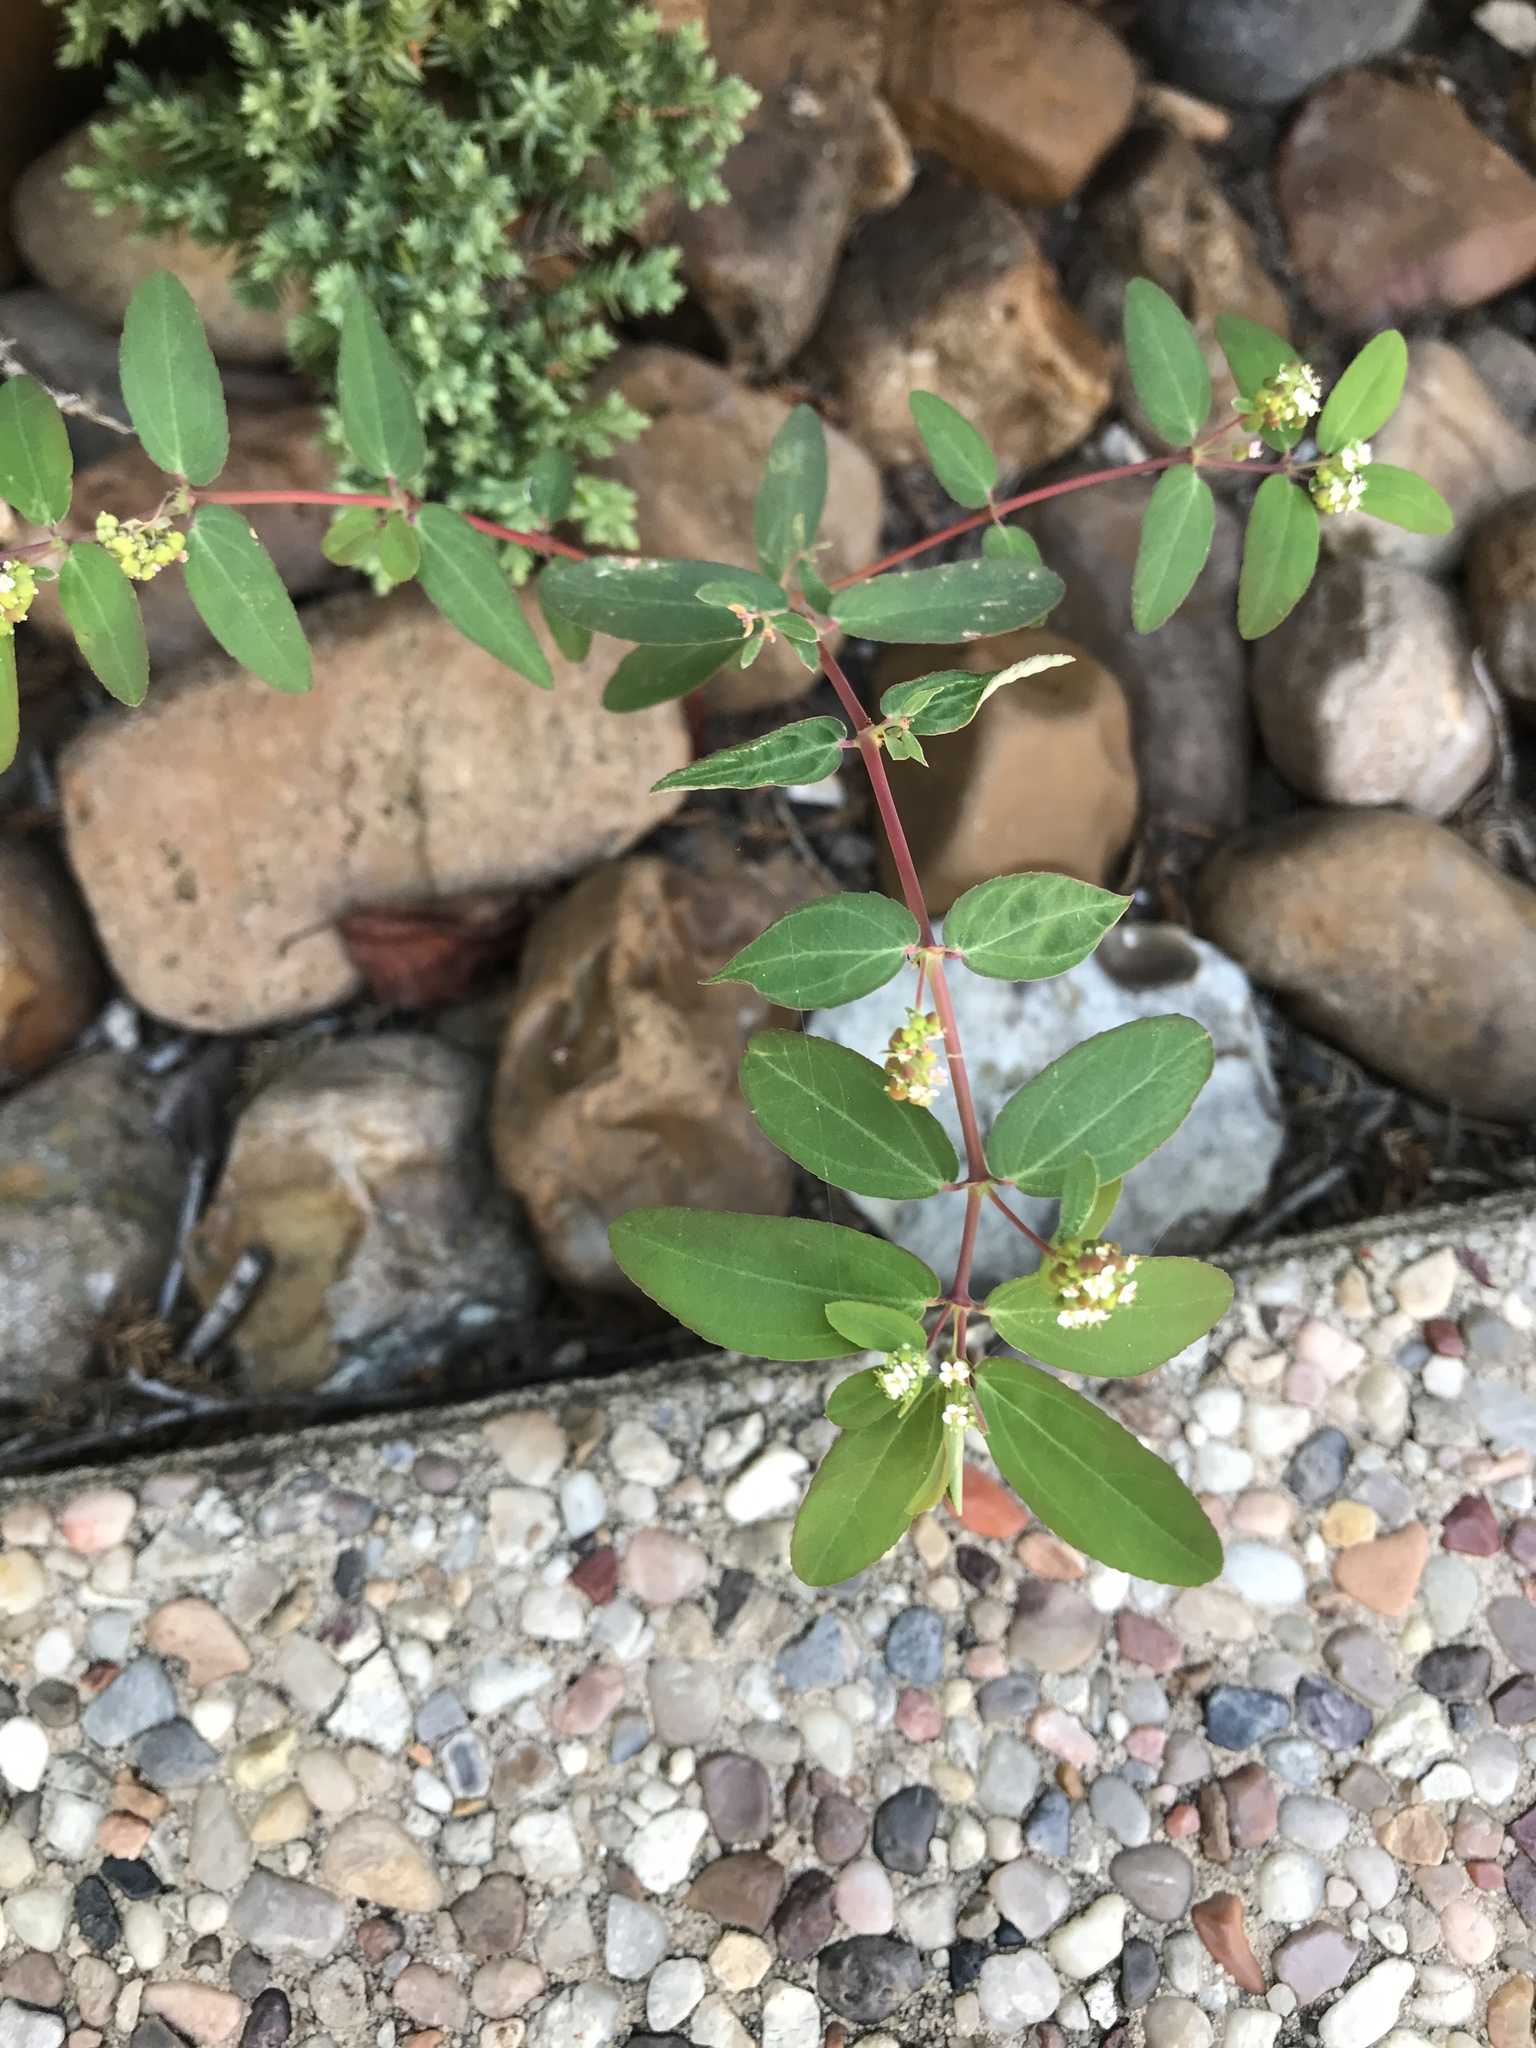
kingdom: Plantae
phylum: Tracheophyta
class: Magnoliopsida
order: Malpighiales
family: Euphorbiaceae
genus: Euphorbia
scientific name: Euphorbia hypericifolia
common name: Graceful sandmat
